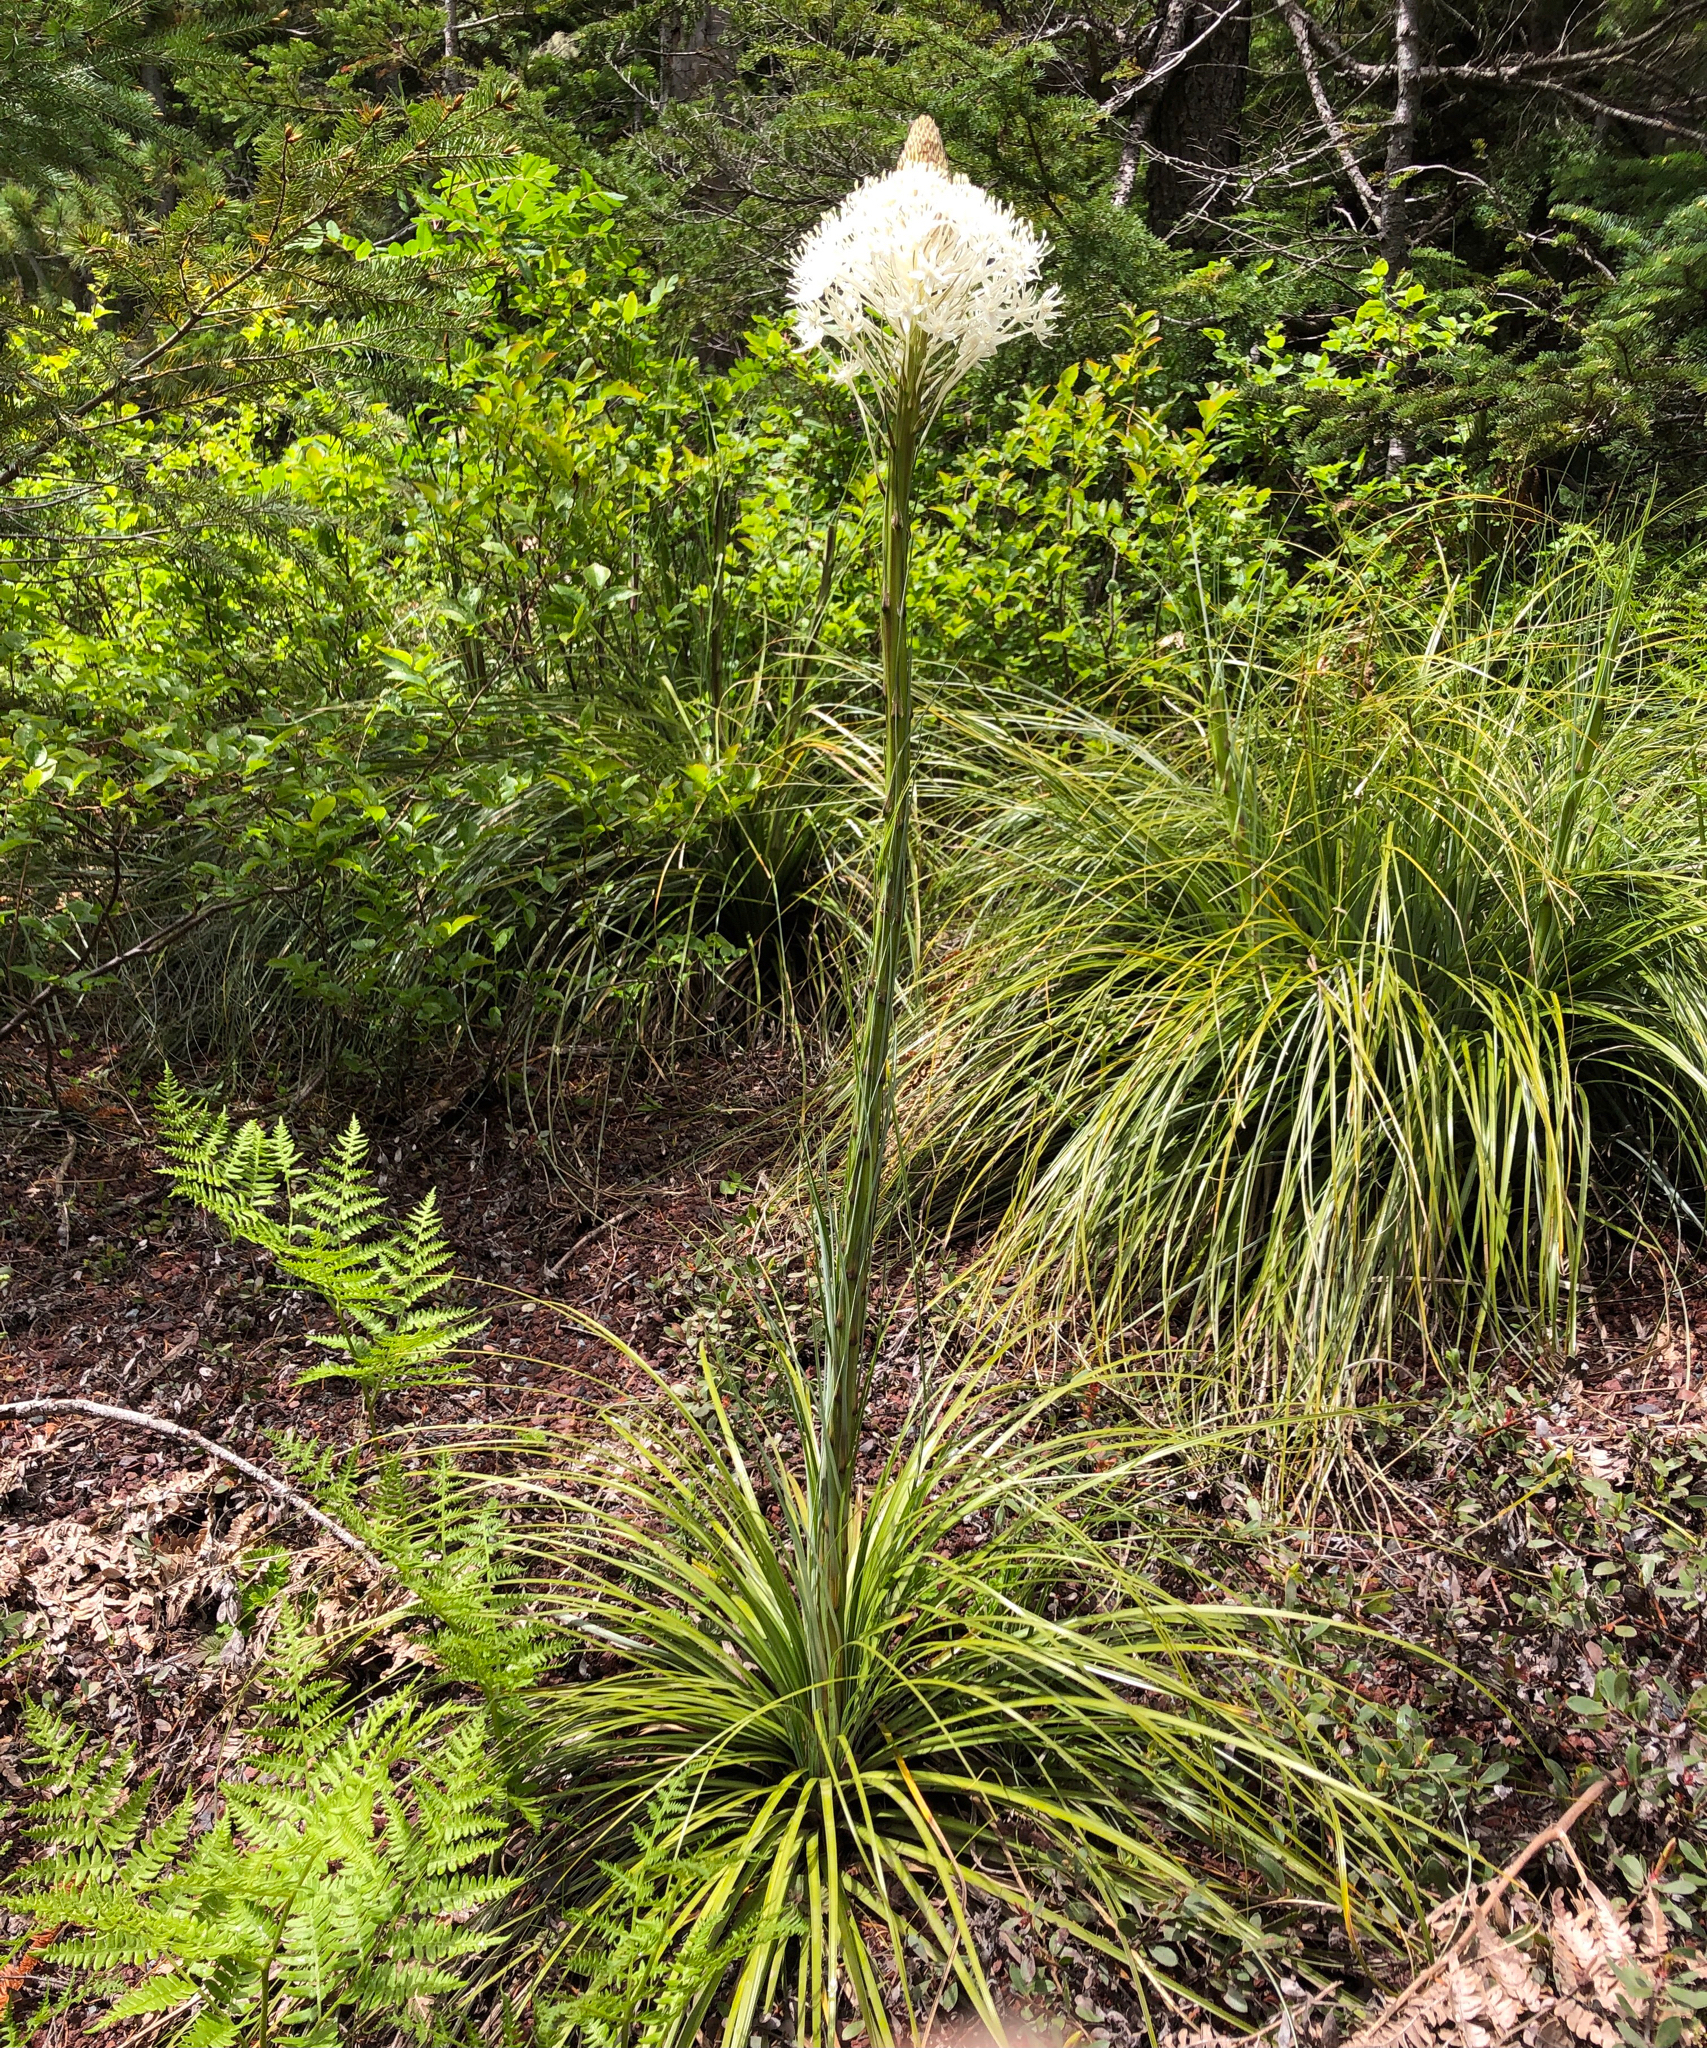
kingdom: Plantae
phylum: Tracheophyta
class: Liliopsida
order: Liliales
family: Melanthiaceae
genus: Xerophyllum
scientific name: Xerophyllum tenax
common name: Bear-grass
